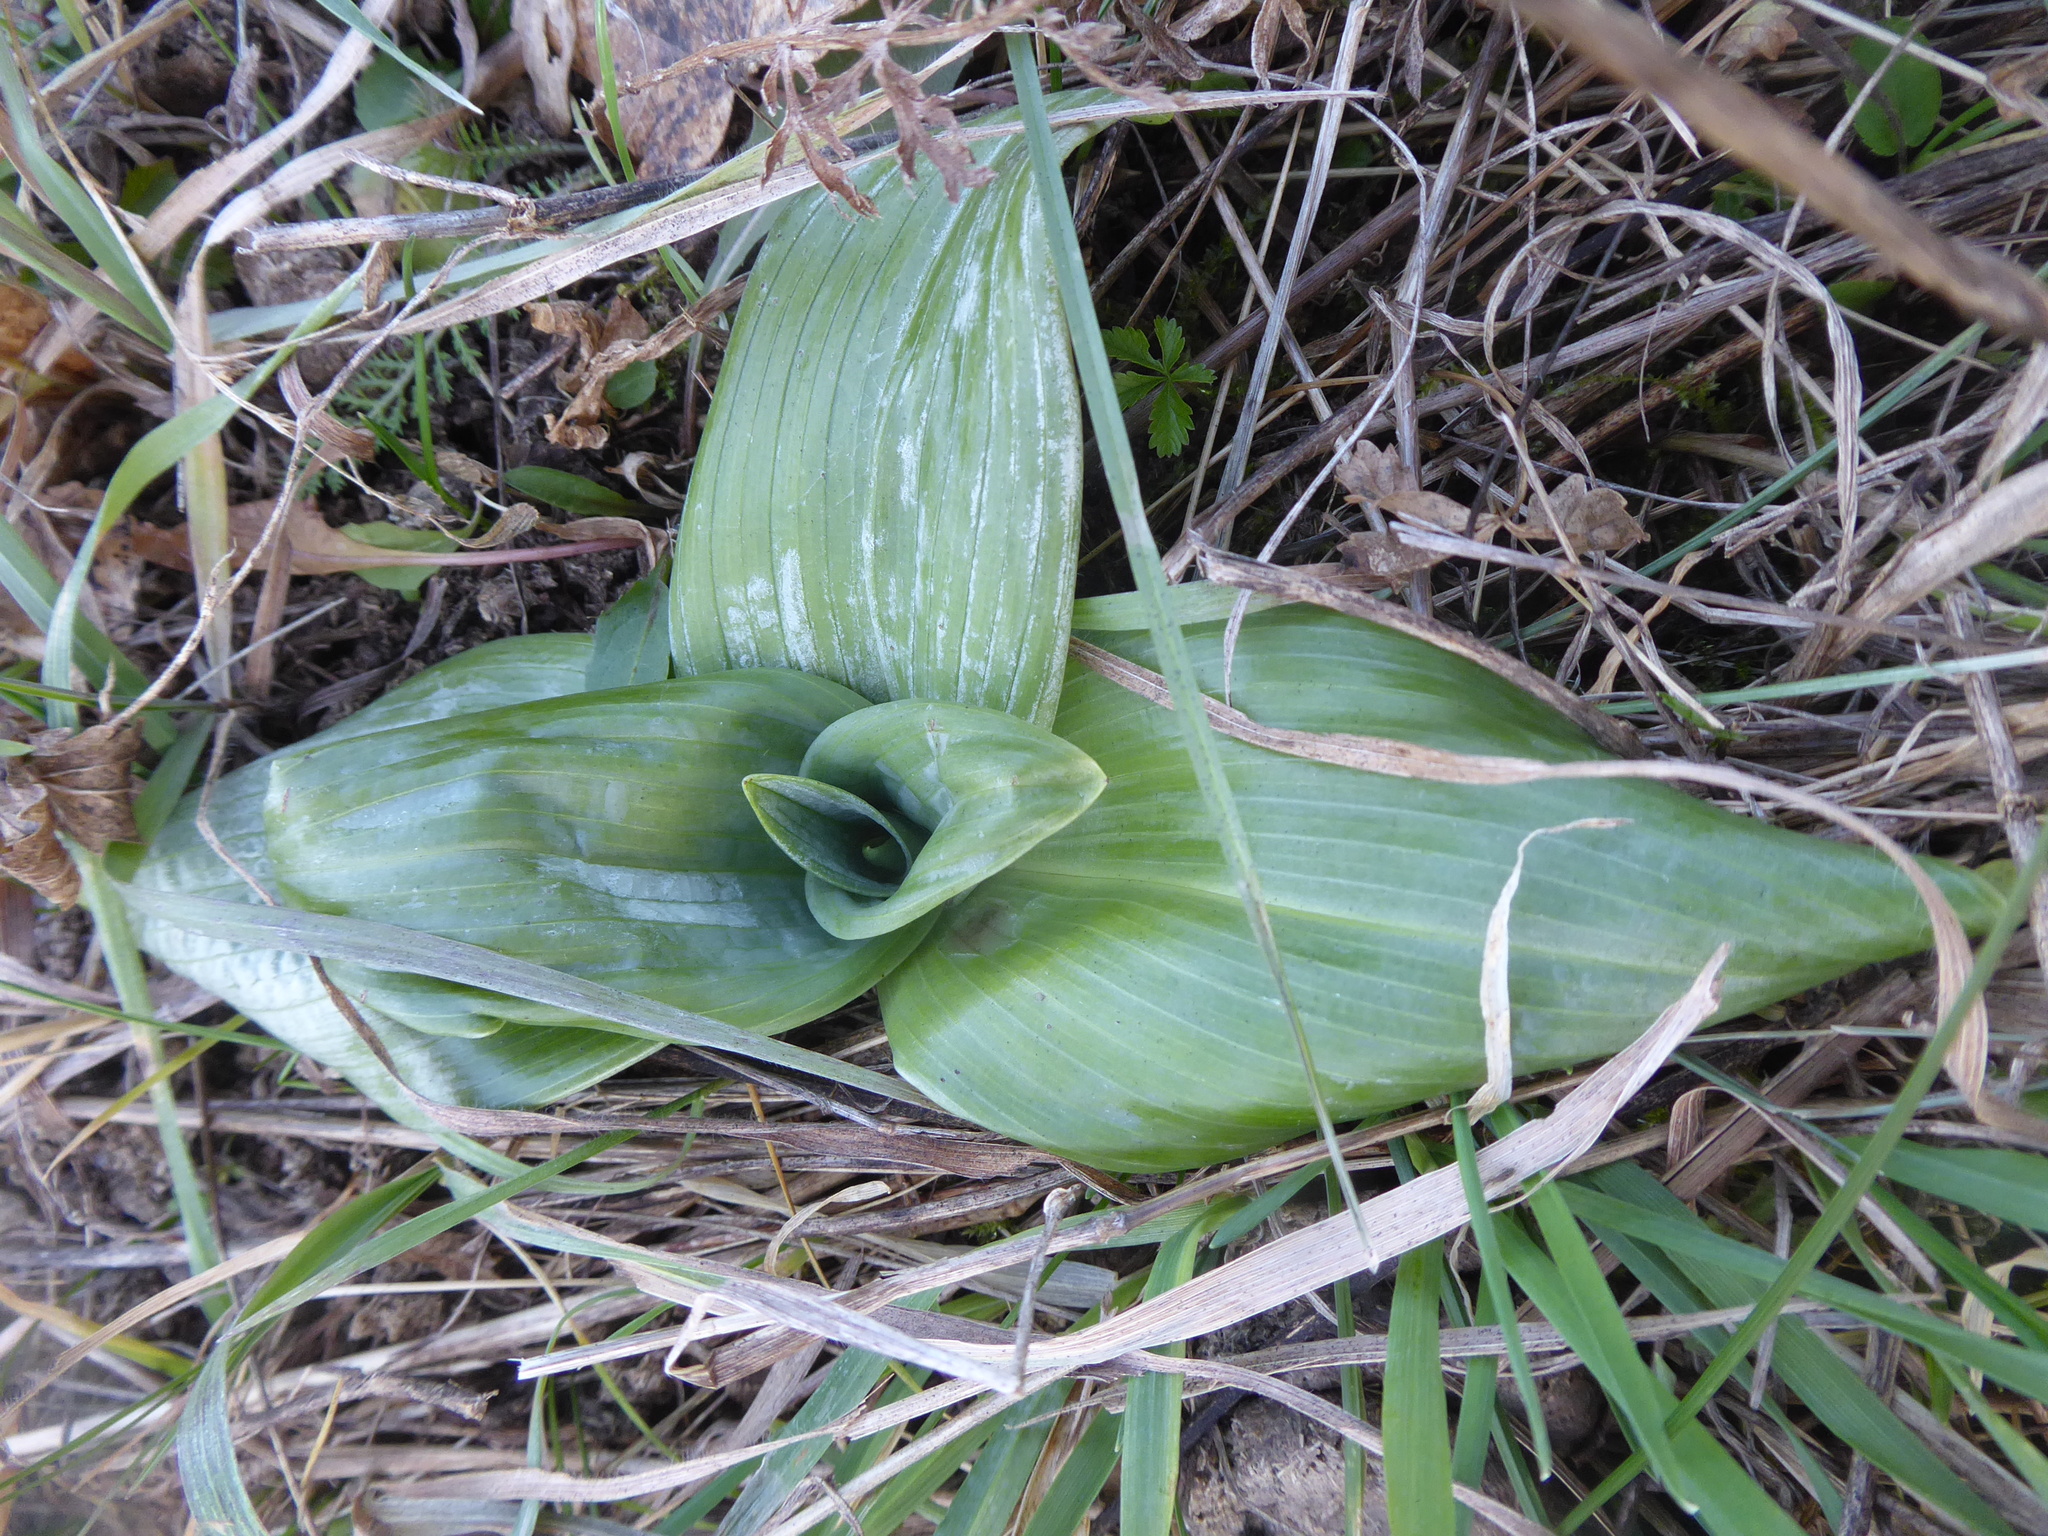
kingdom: Plantae
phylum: Tracheophyta
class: Liliopsida
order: Asparagales
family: Orchidaceae
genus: Himantoglossum
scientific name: Himantoglossum adriaticum
